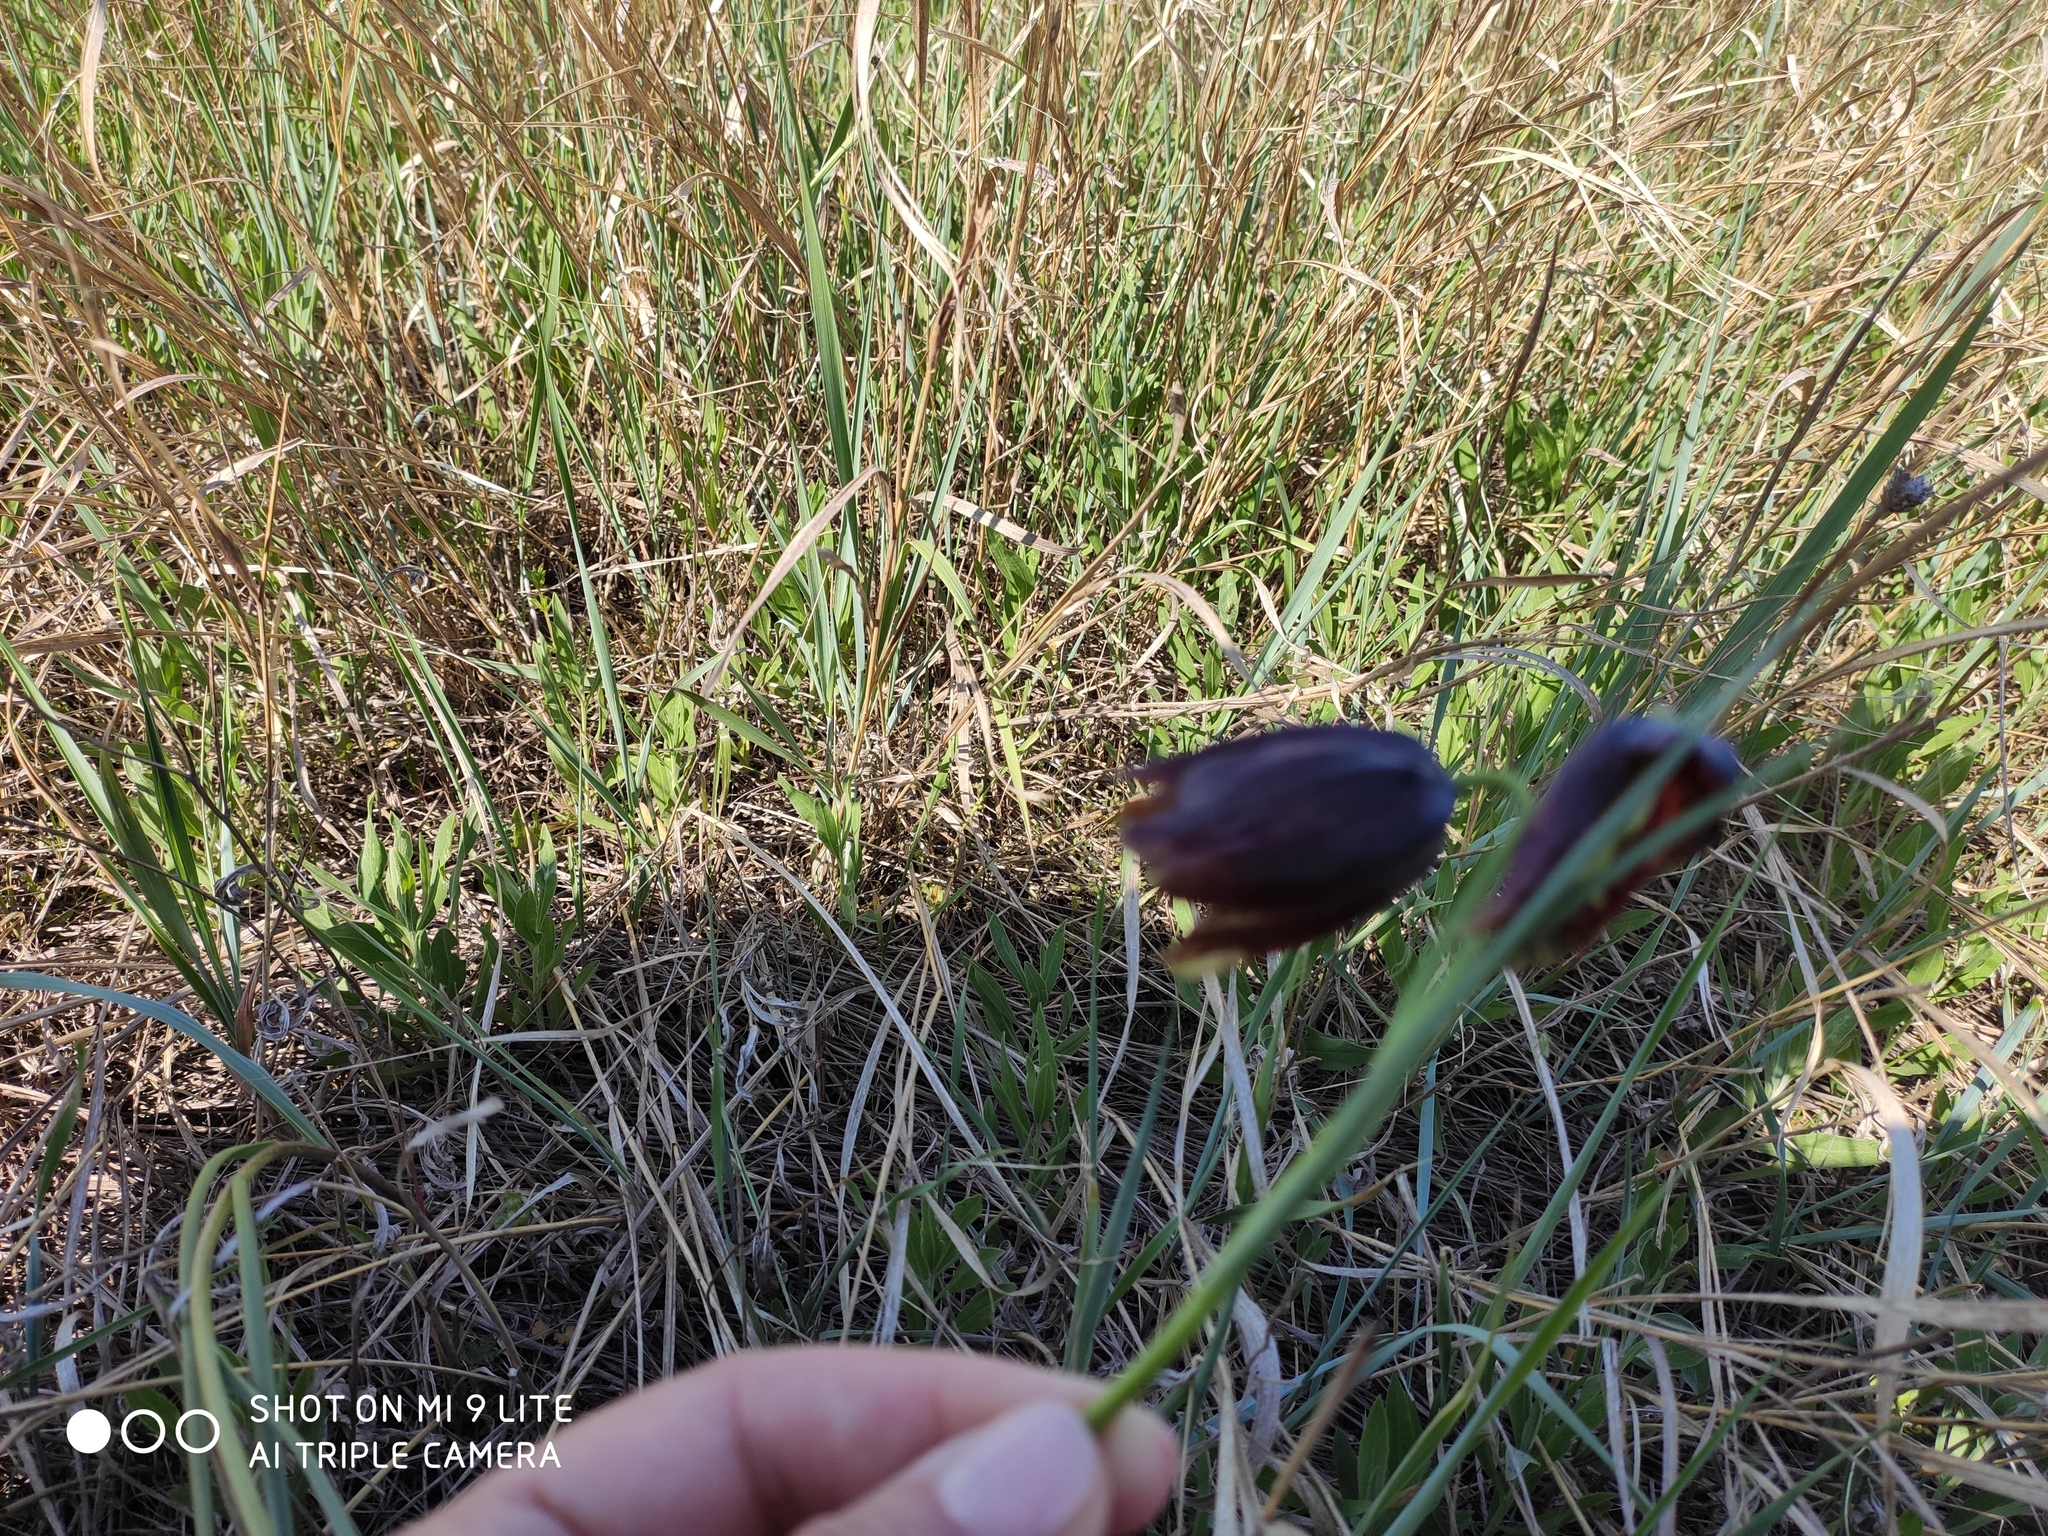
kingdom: Plantae
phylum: Tracheophyta
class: Liliopsida
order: Liliales
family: Liliaceae
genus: Fritillaria
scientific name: Fritillaria meleagroides
